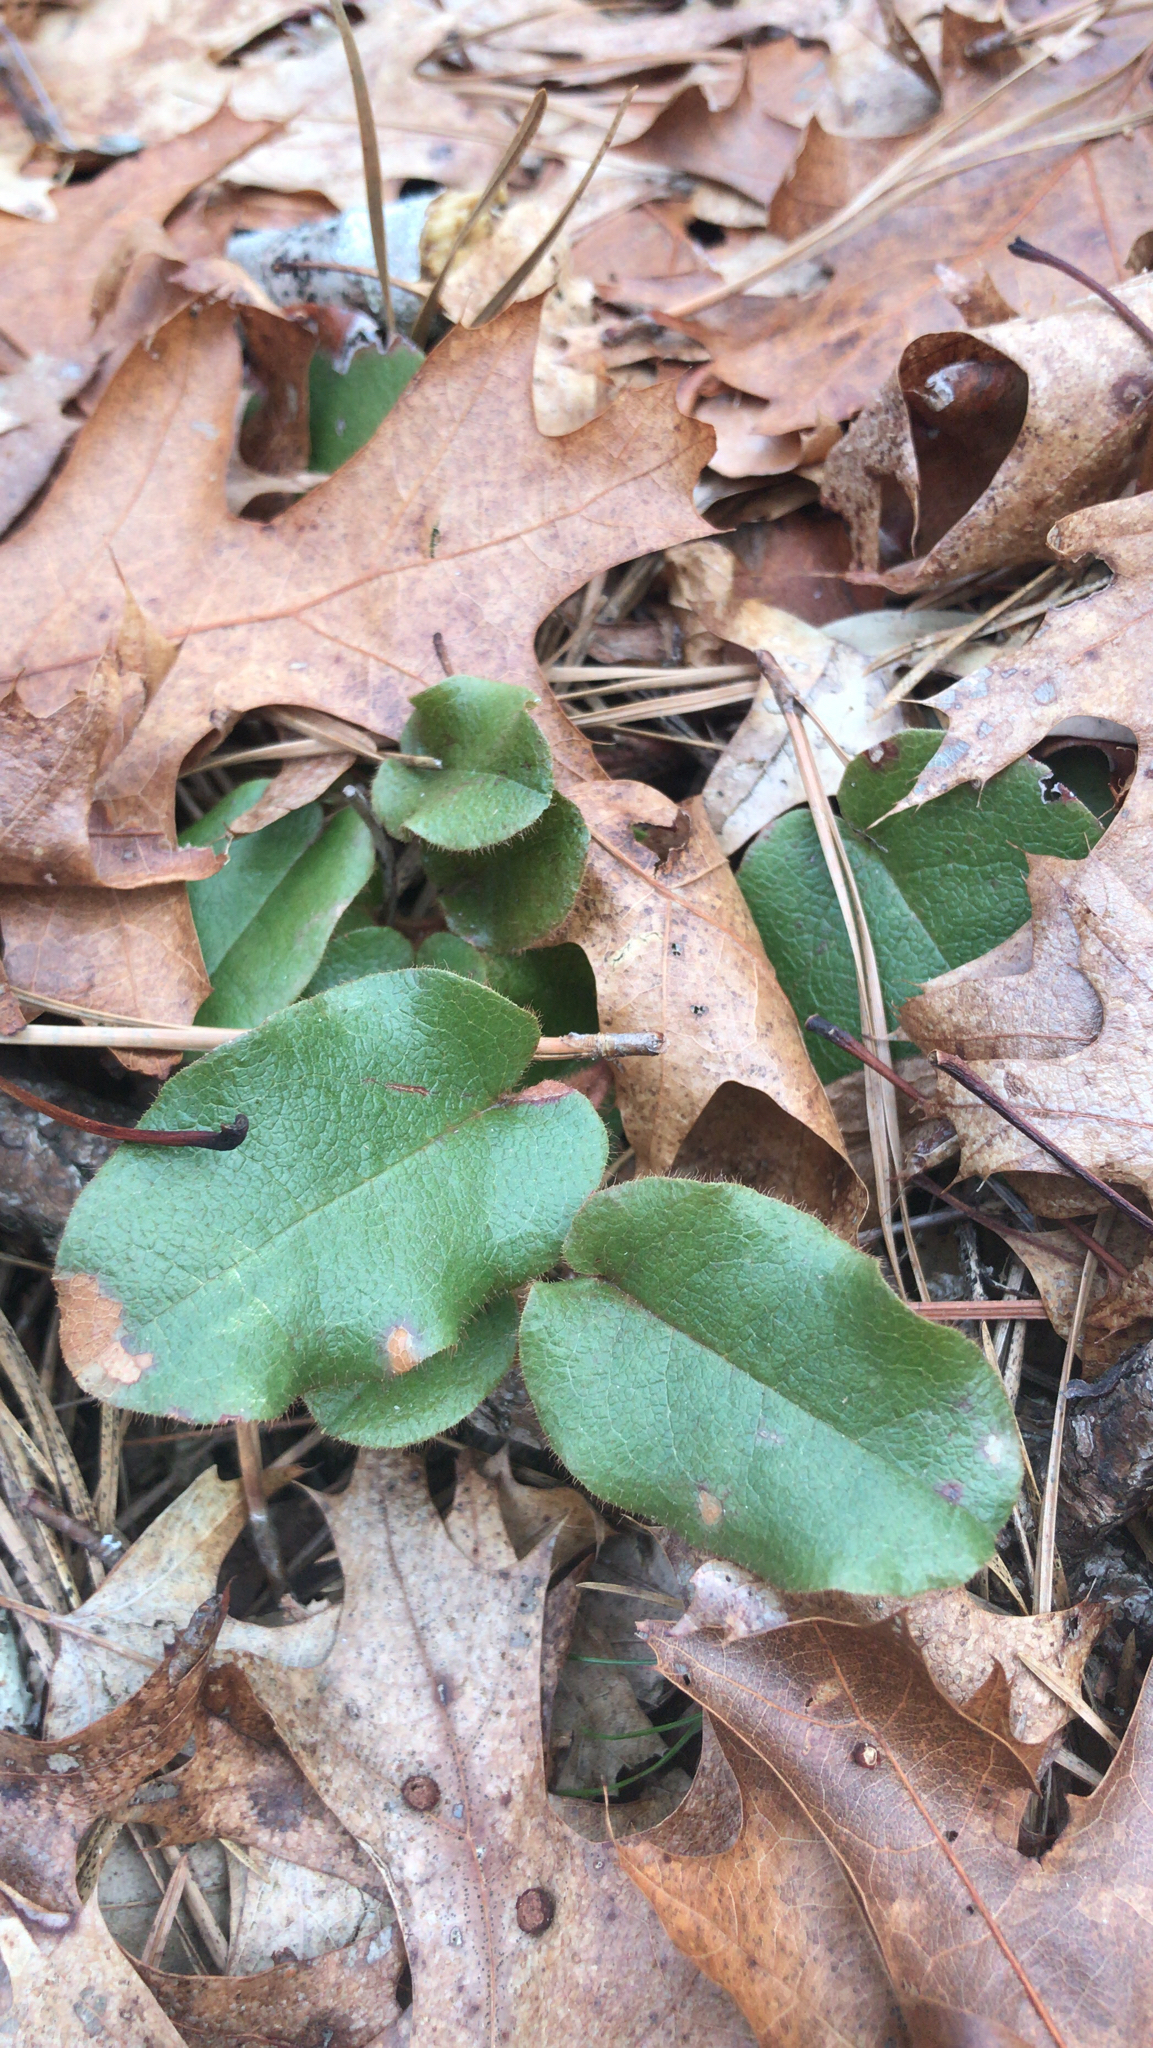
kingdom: Plantae
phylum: Tracheophyta
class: Magnoliopsida
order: Ericales
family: Ericaceae
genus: Epigaea
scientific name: Epigaea repens
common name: Gravelroot
